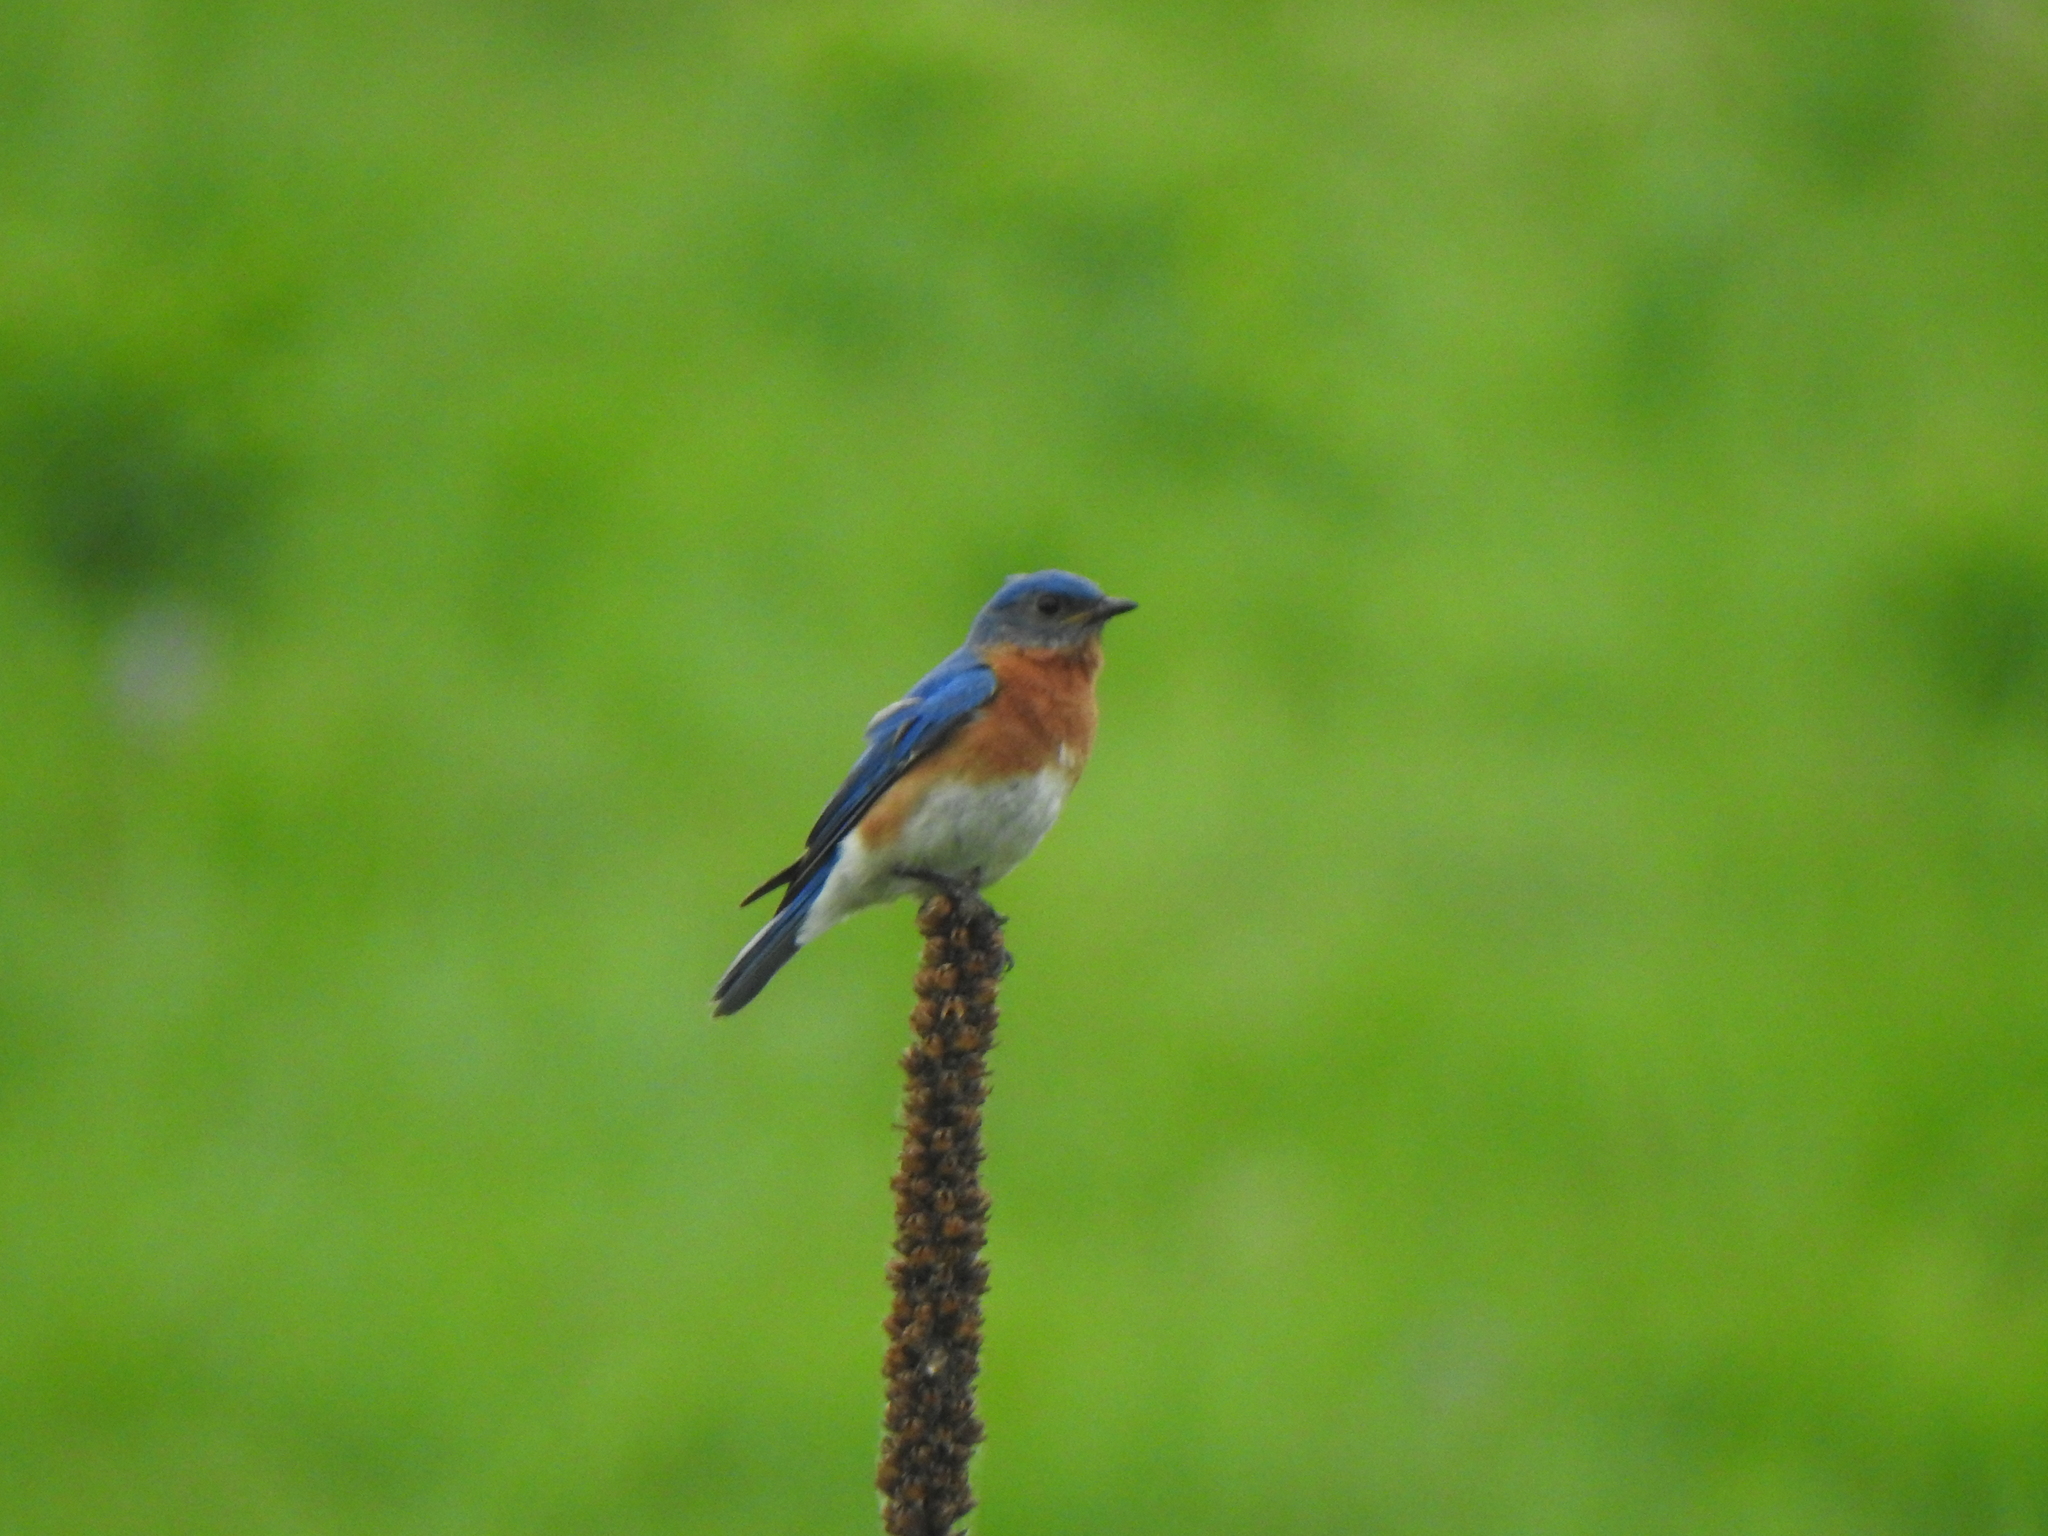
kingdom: Animalia
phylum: Chordata
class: Aves
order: Passeriformes
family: Turdidae
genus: Sialia
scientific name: Sialia sialis
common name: Eastern bluebird
